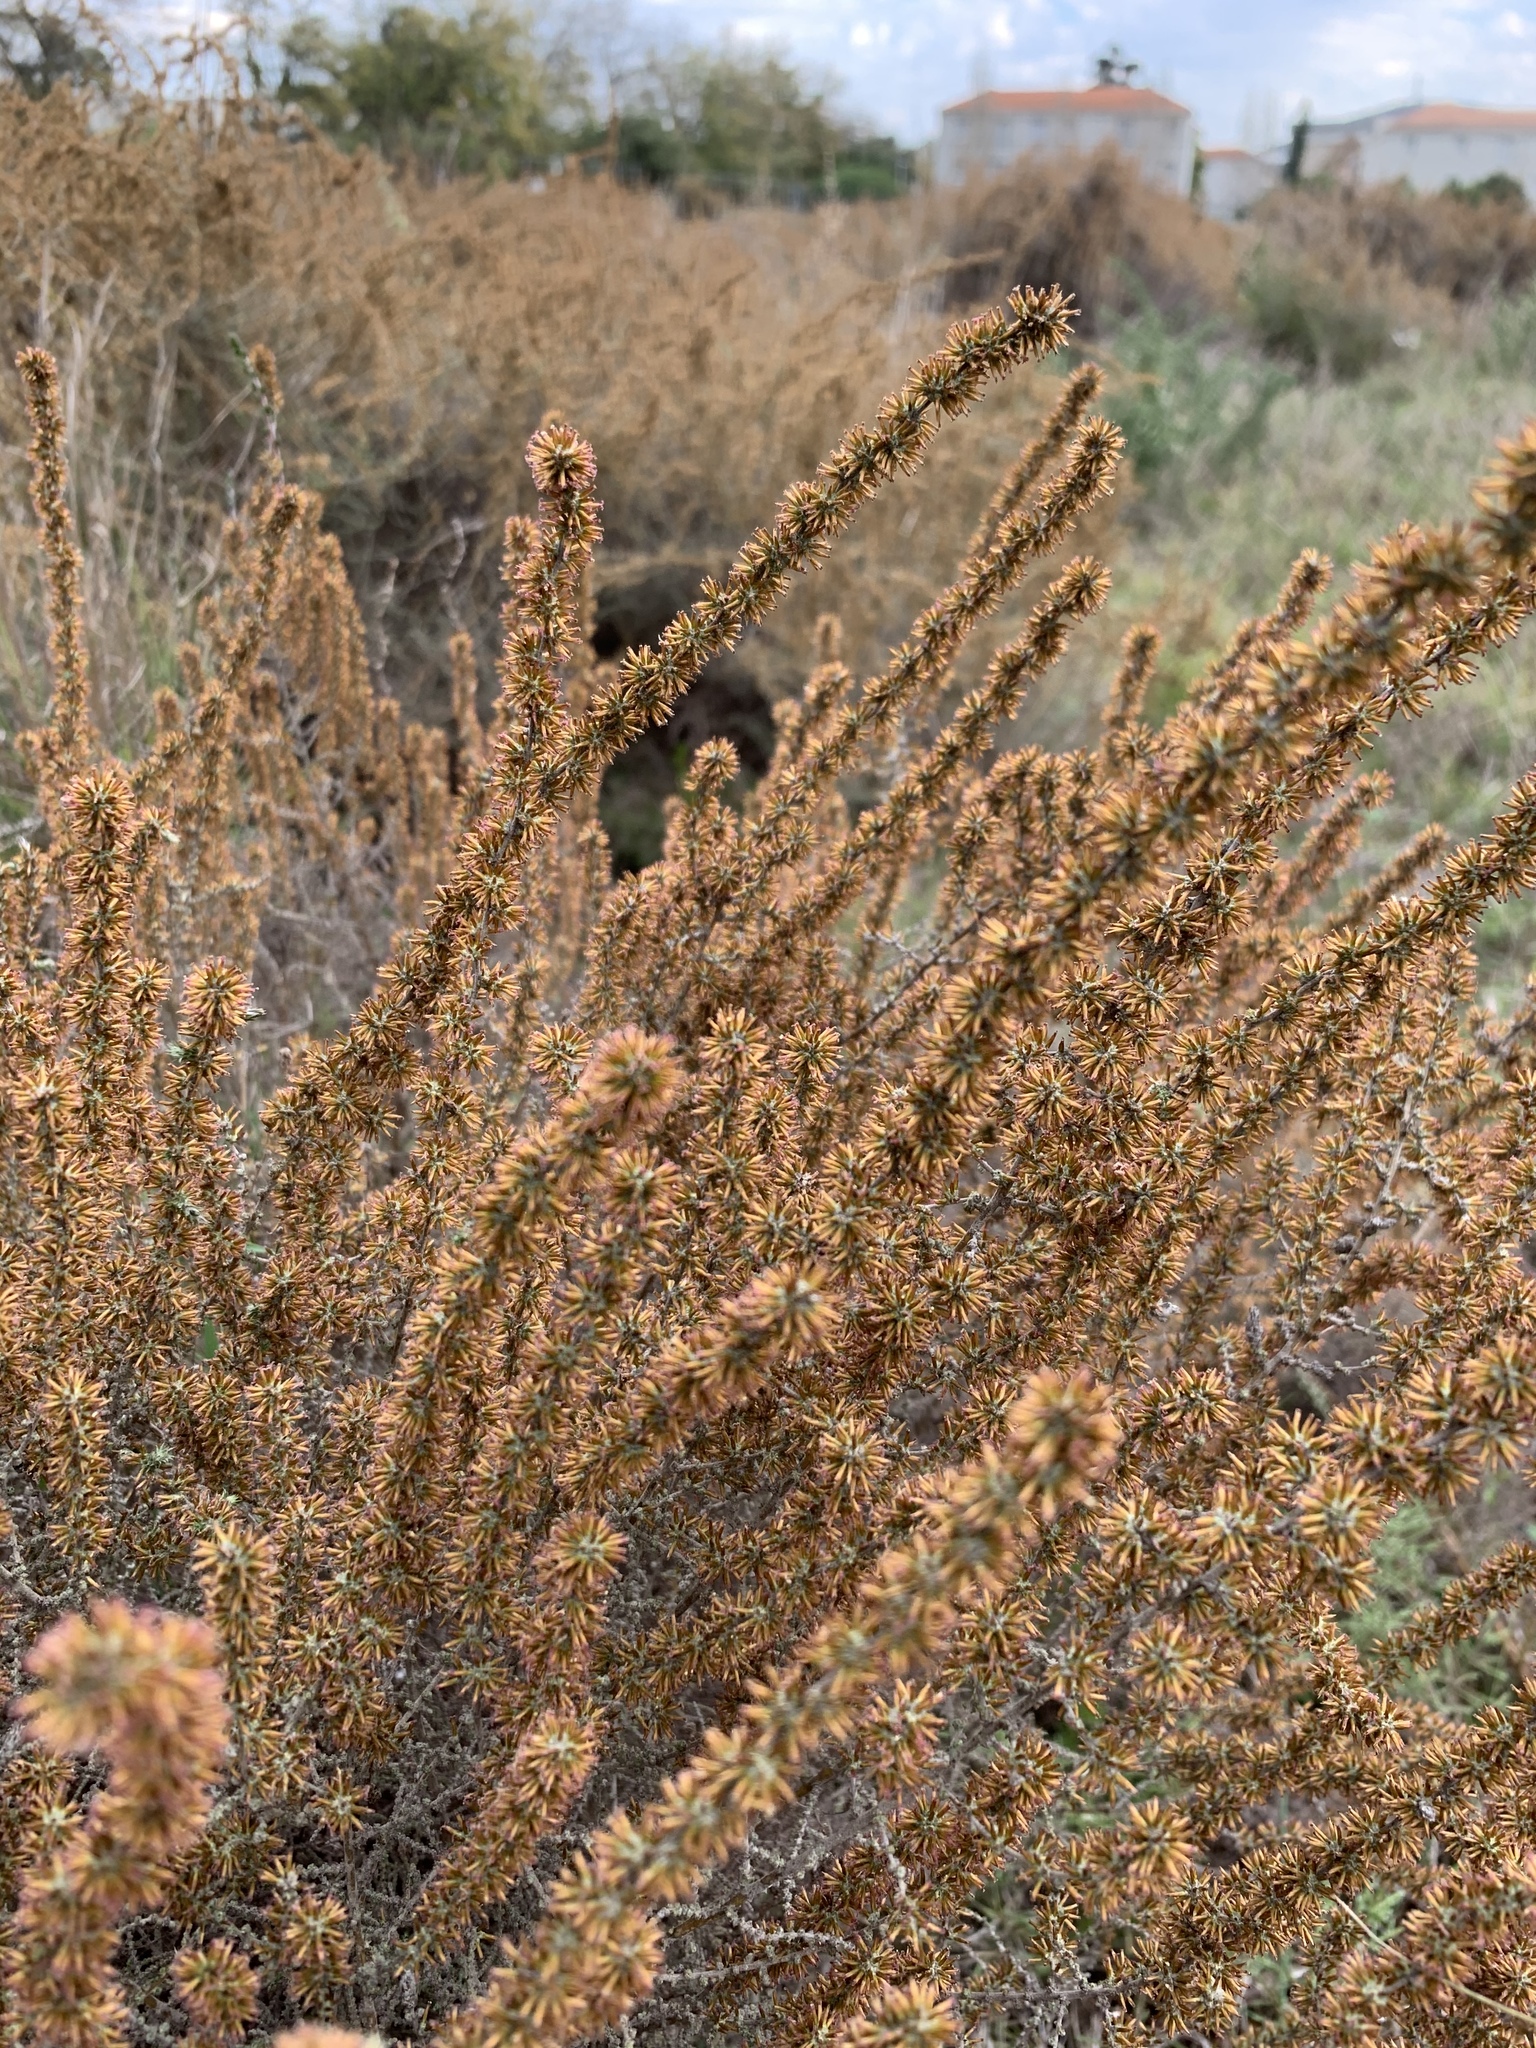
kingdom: Plantae
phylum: Tracheophyta
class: Magnoliopsida
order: Asterales
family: Asteraceae
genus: Seriphium
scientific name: Seriphium plumosum
